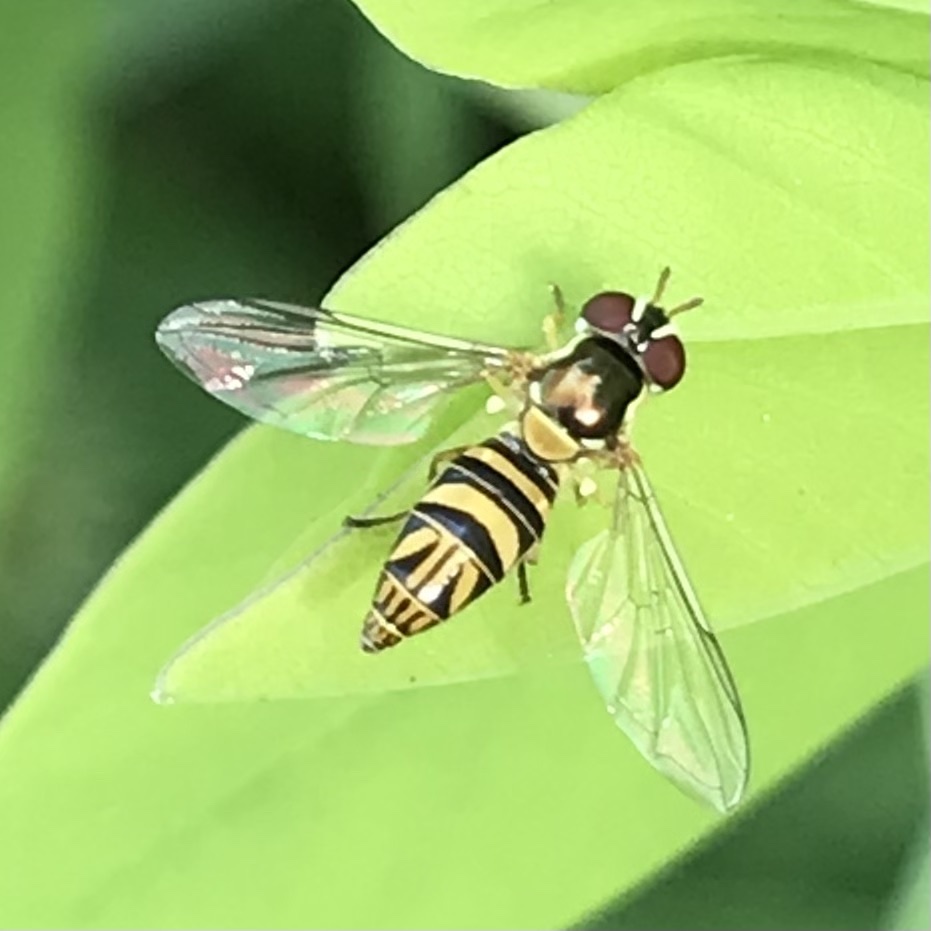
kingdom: Animalia
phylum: Arthropoda
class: Insecta
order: Diptera
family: Syrphidae
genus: Allograpta
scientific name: Allograpta obliqua
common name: Common oblique syrphid
